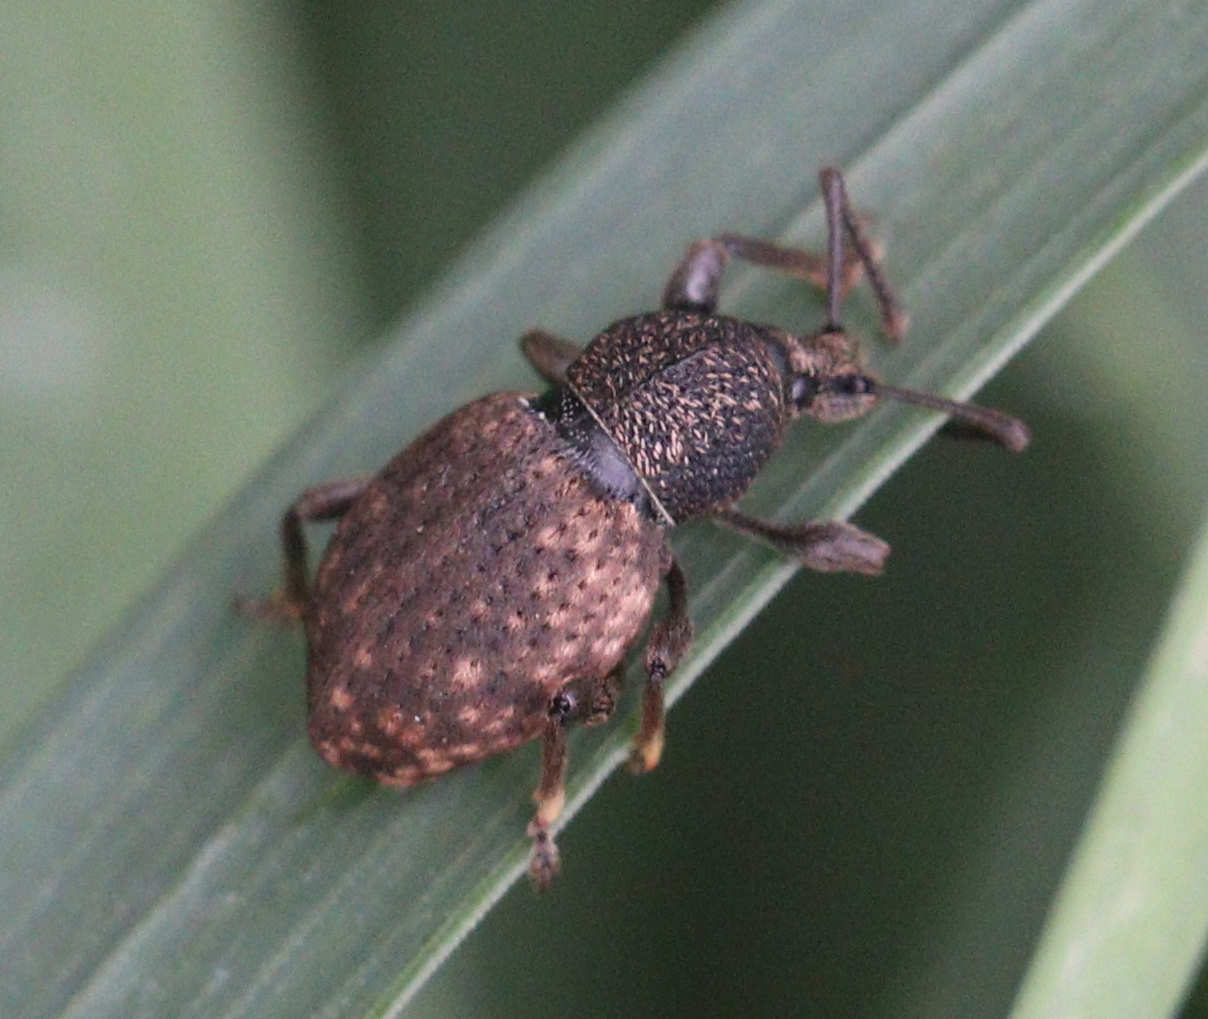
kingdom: Animalia
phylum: Arthropoda
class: Insecta
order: Coleoptera
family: Curculionidae
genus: Otiorhynchus
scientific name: Otiorhynchus raucus
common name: Weevil
